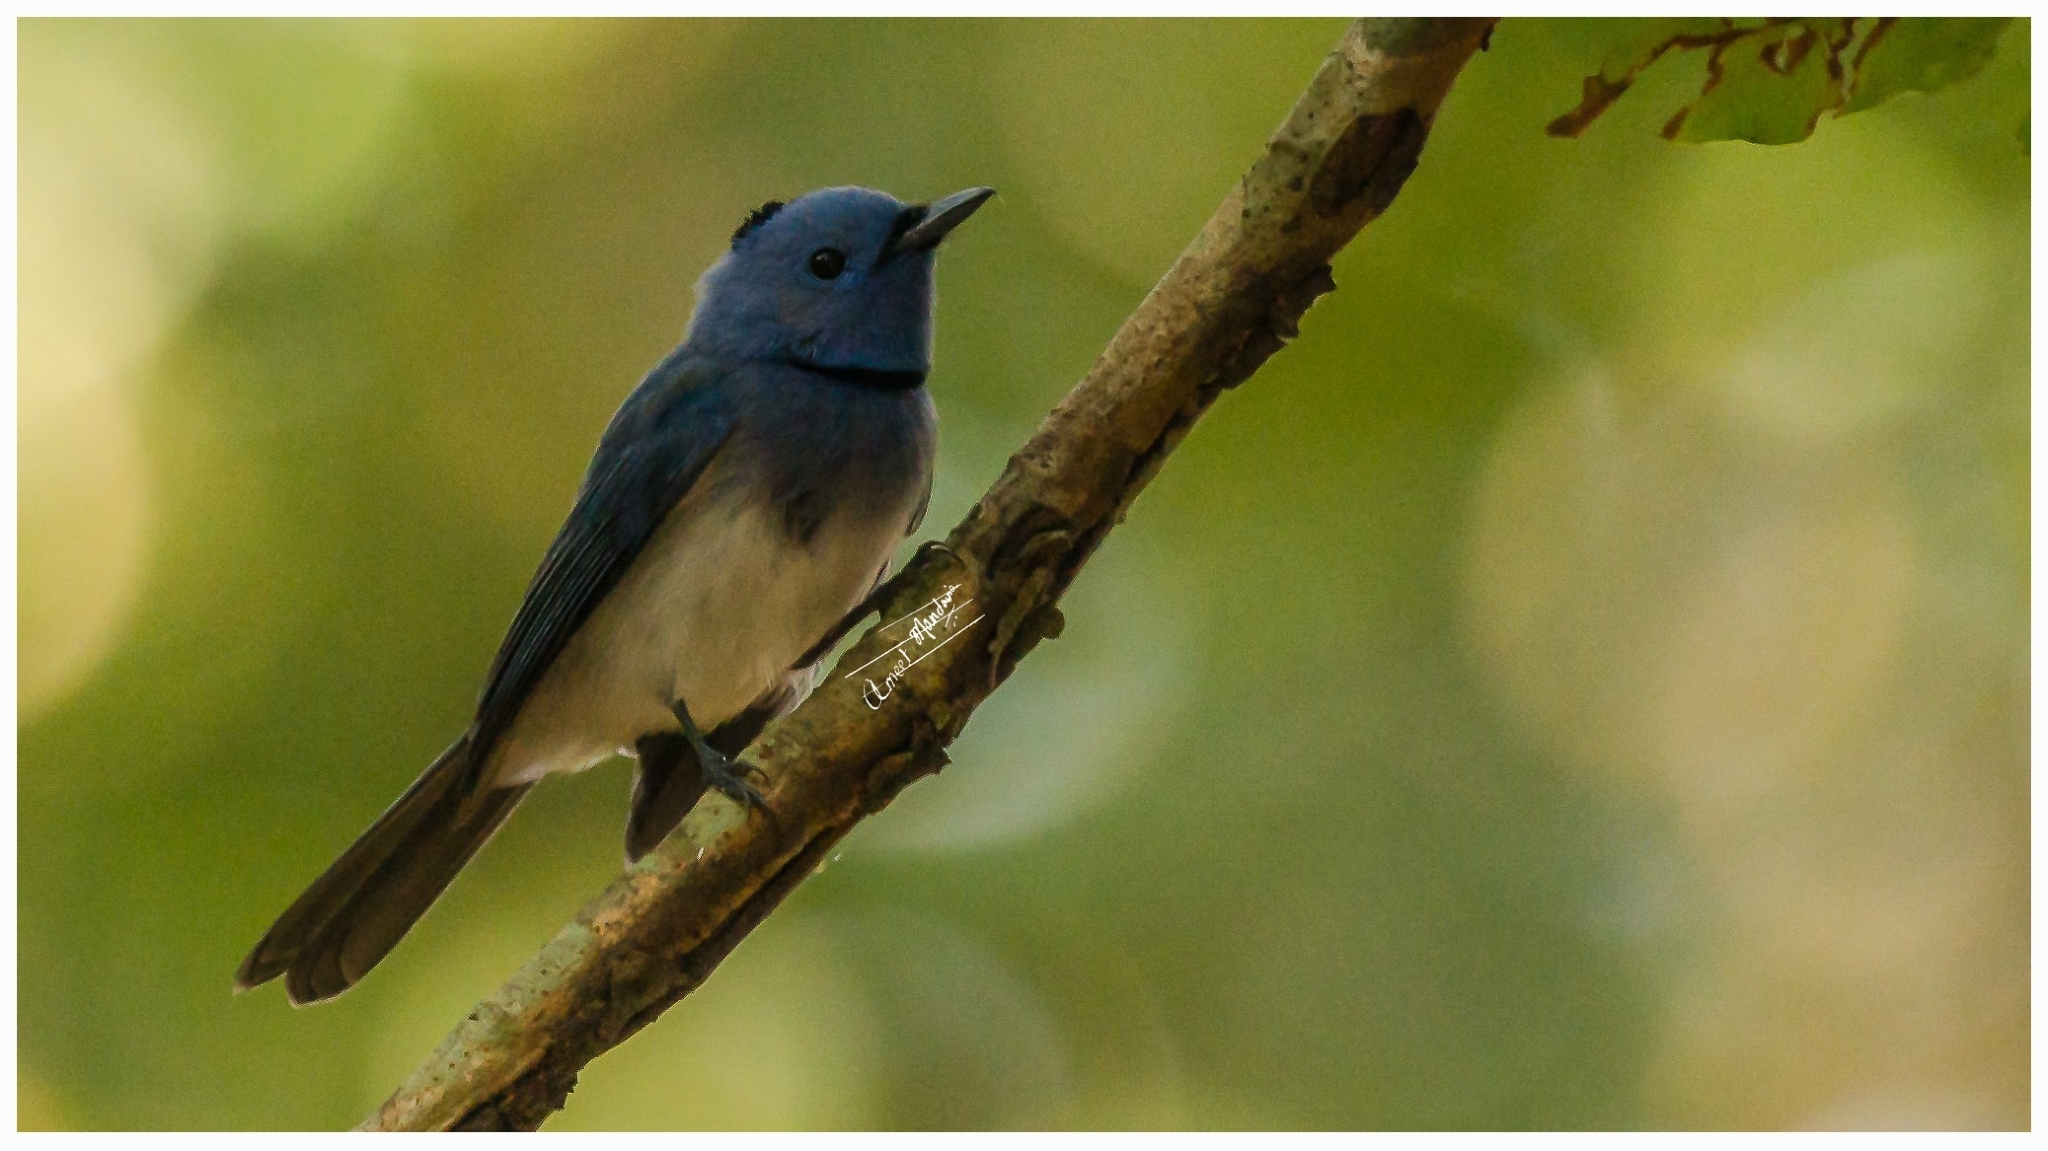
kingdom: Animalia
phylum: Chordata
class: Aves
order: Passeriformes
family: Monarchidae
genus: Hypothymis
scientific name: Hypothymis azurea
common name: Black-naped monarch
